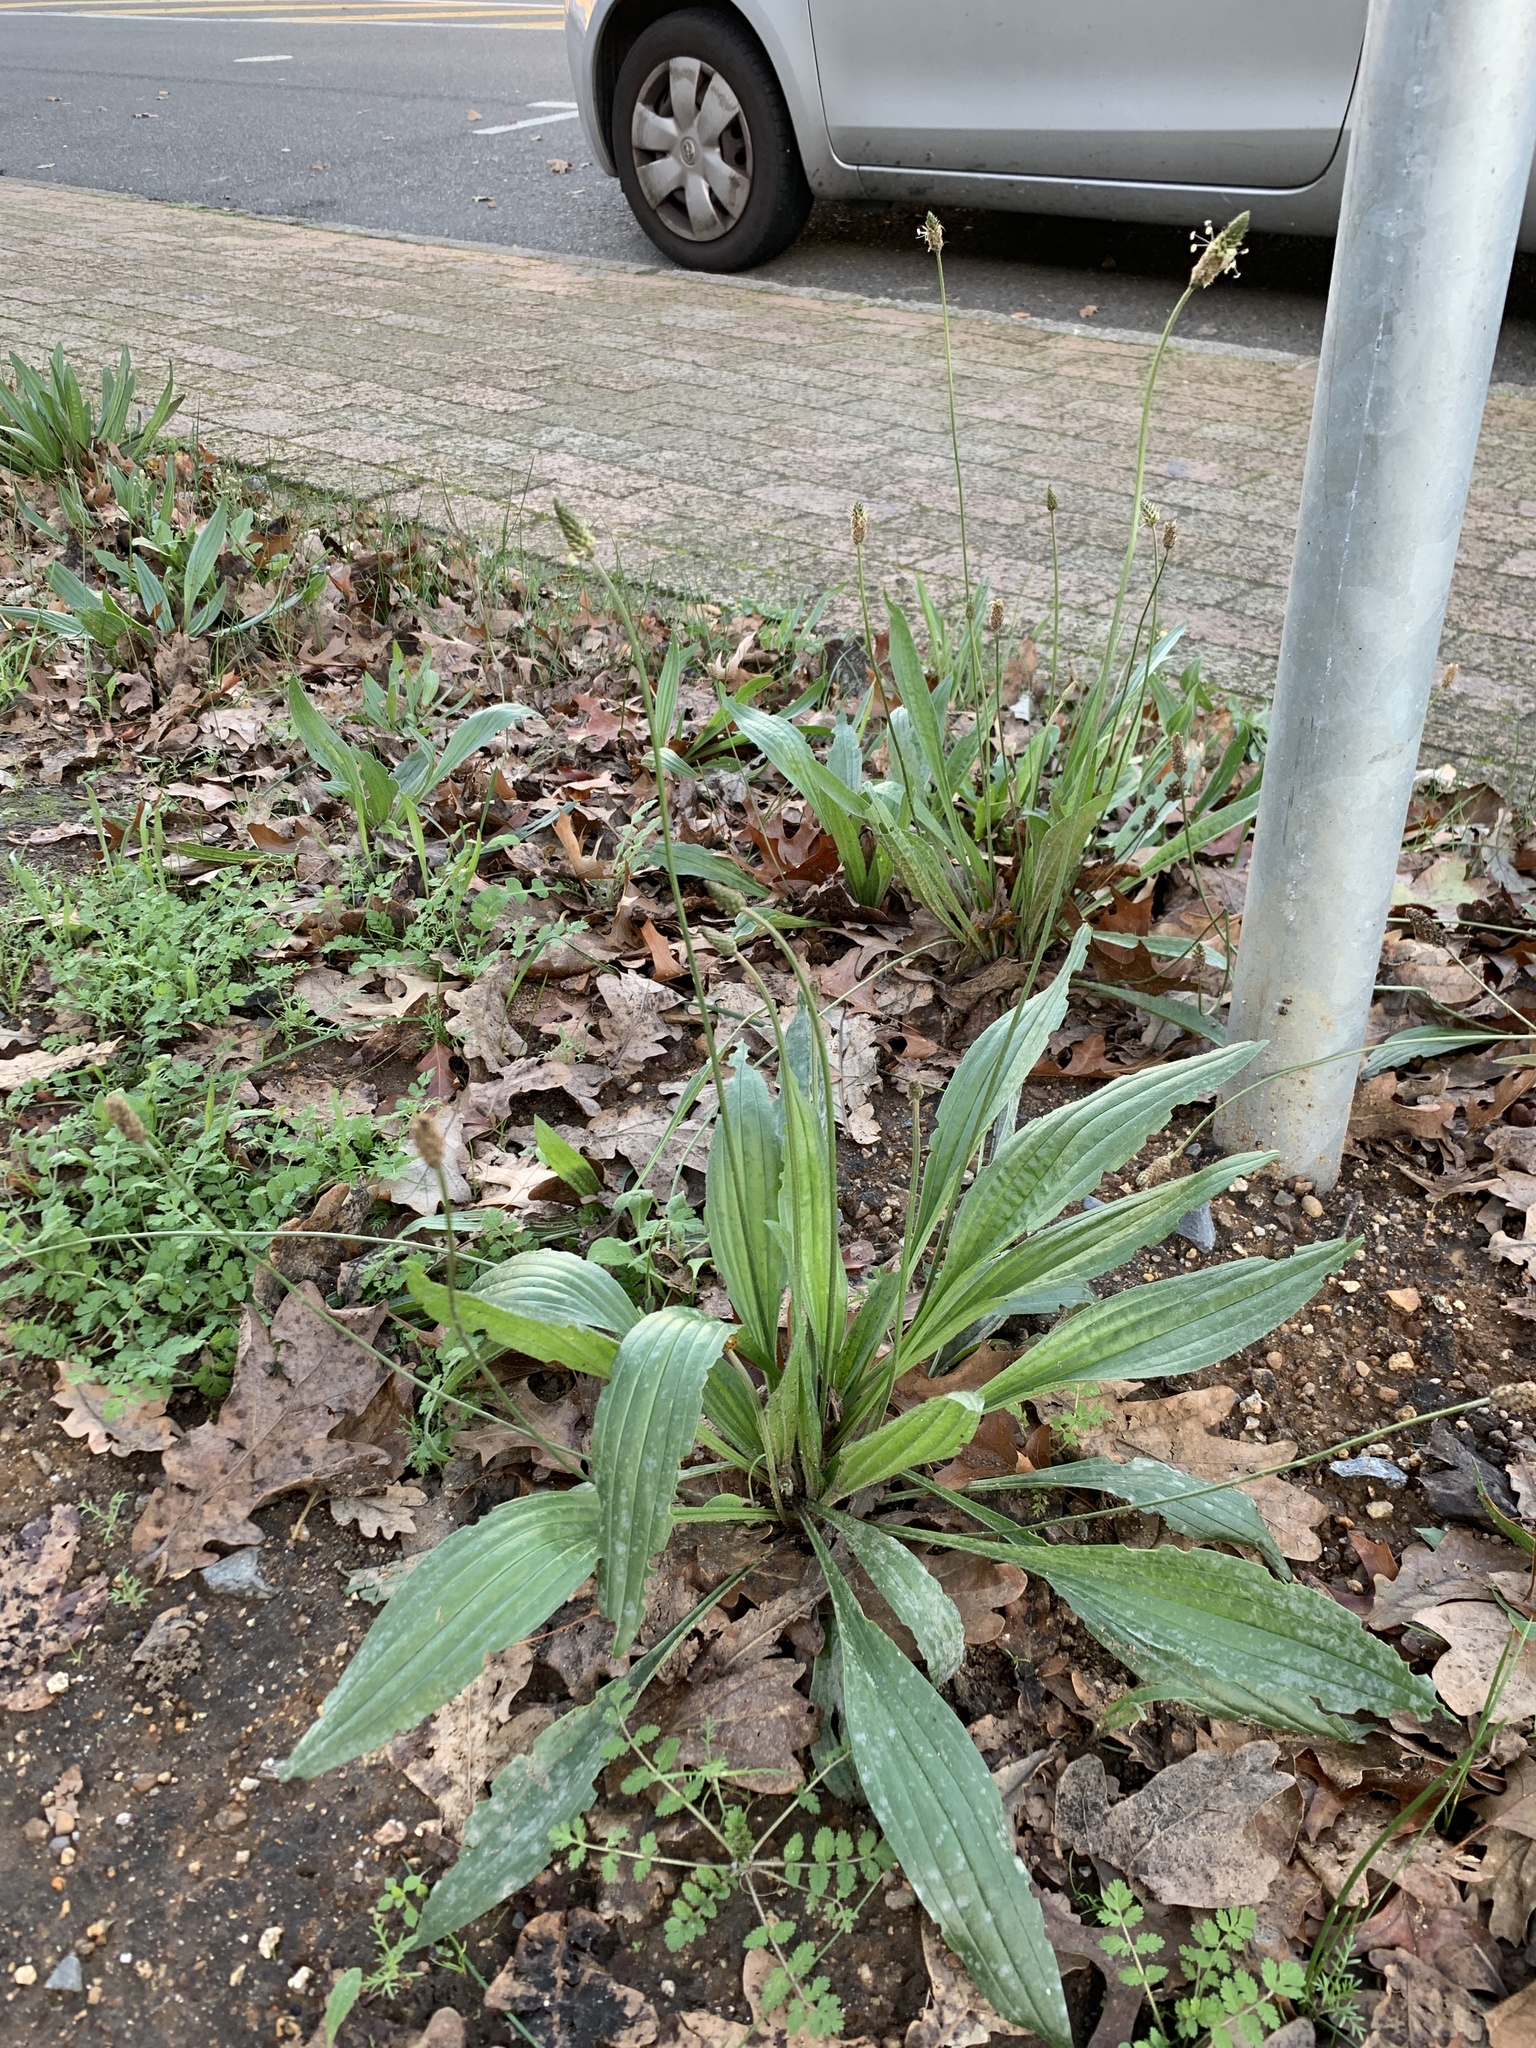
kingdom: Plantae
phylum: Tracheophyta
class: Magnoliopsida
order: Lamiales
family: Plantaginaceae
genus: Plantago
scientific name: Plantago lanceolata
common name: Ribwort plantain
